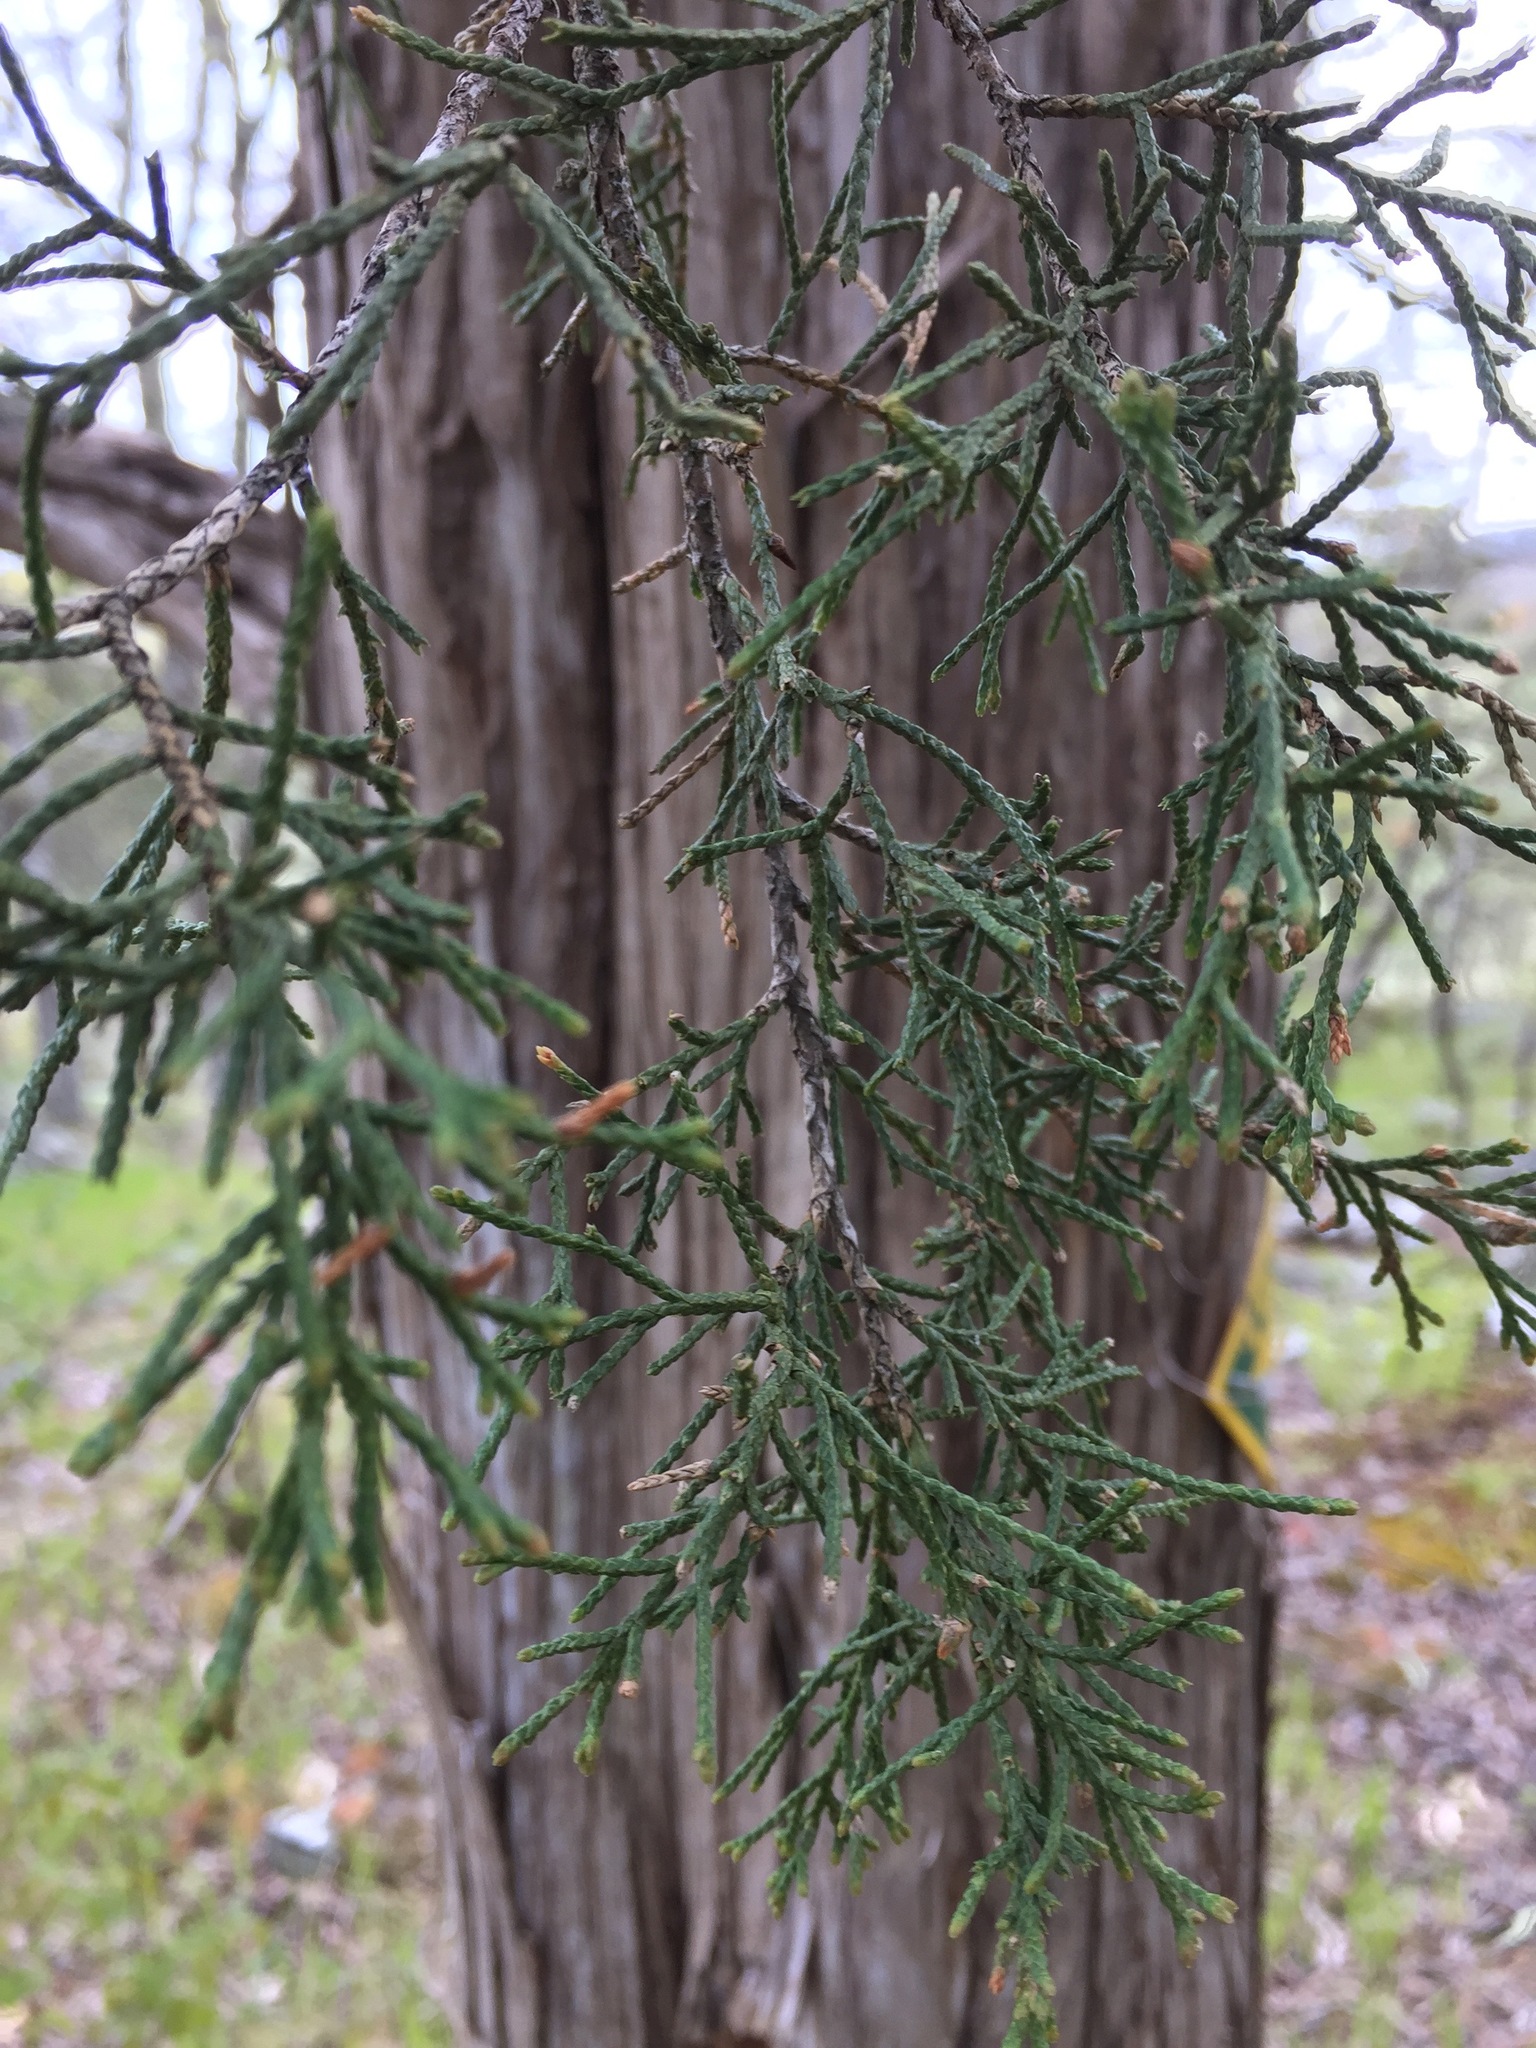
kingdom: Plantae
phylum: Tracheophyta
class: Pinopsida
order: Pinales
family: Cupressaceae
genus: Juniperus
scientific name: Juniperus virginiana
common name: Red juniper
